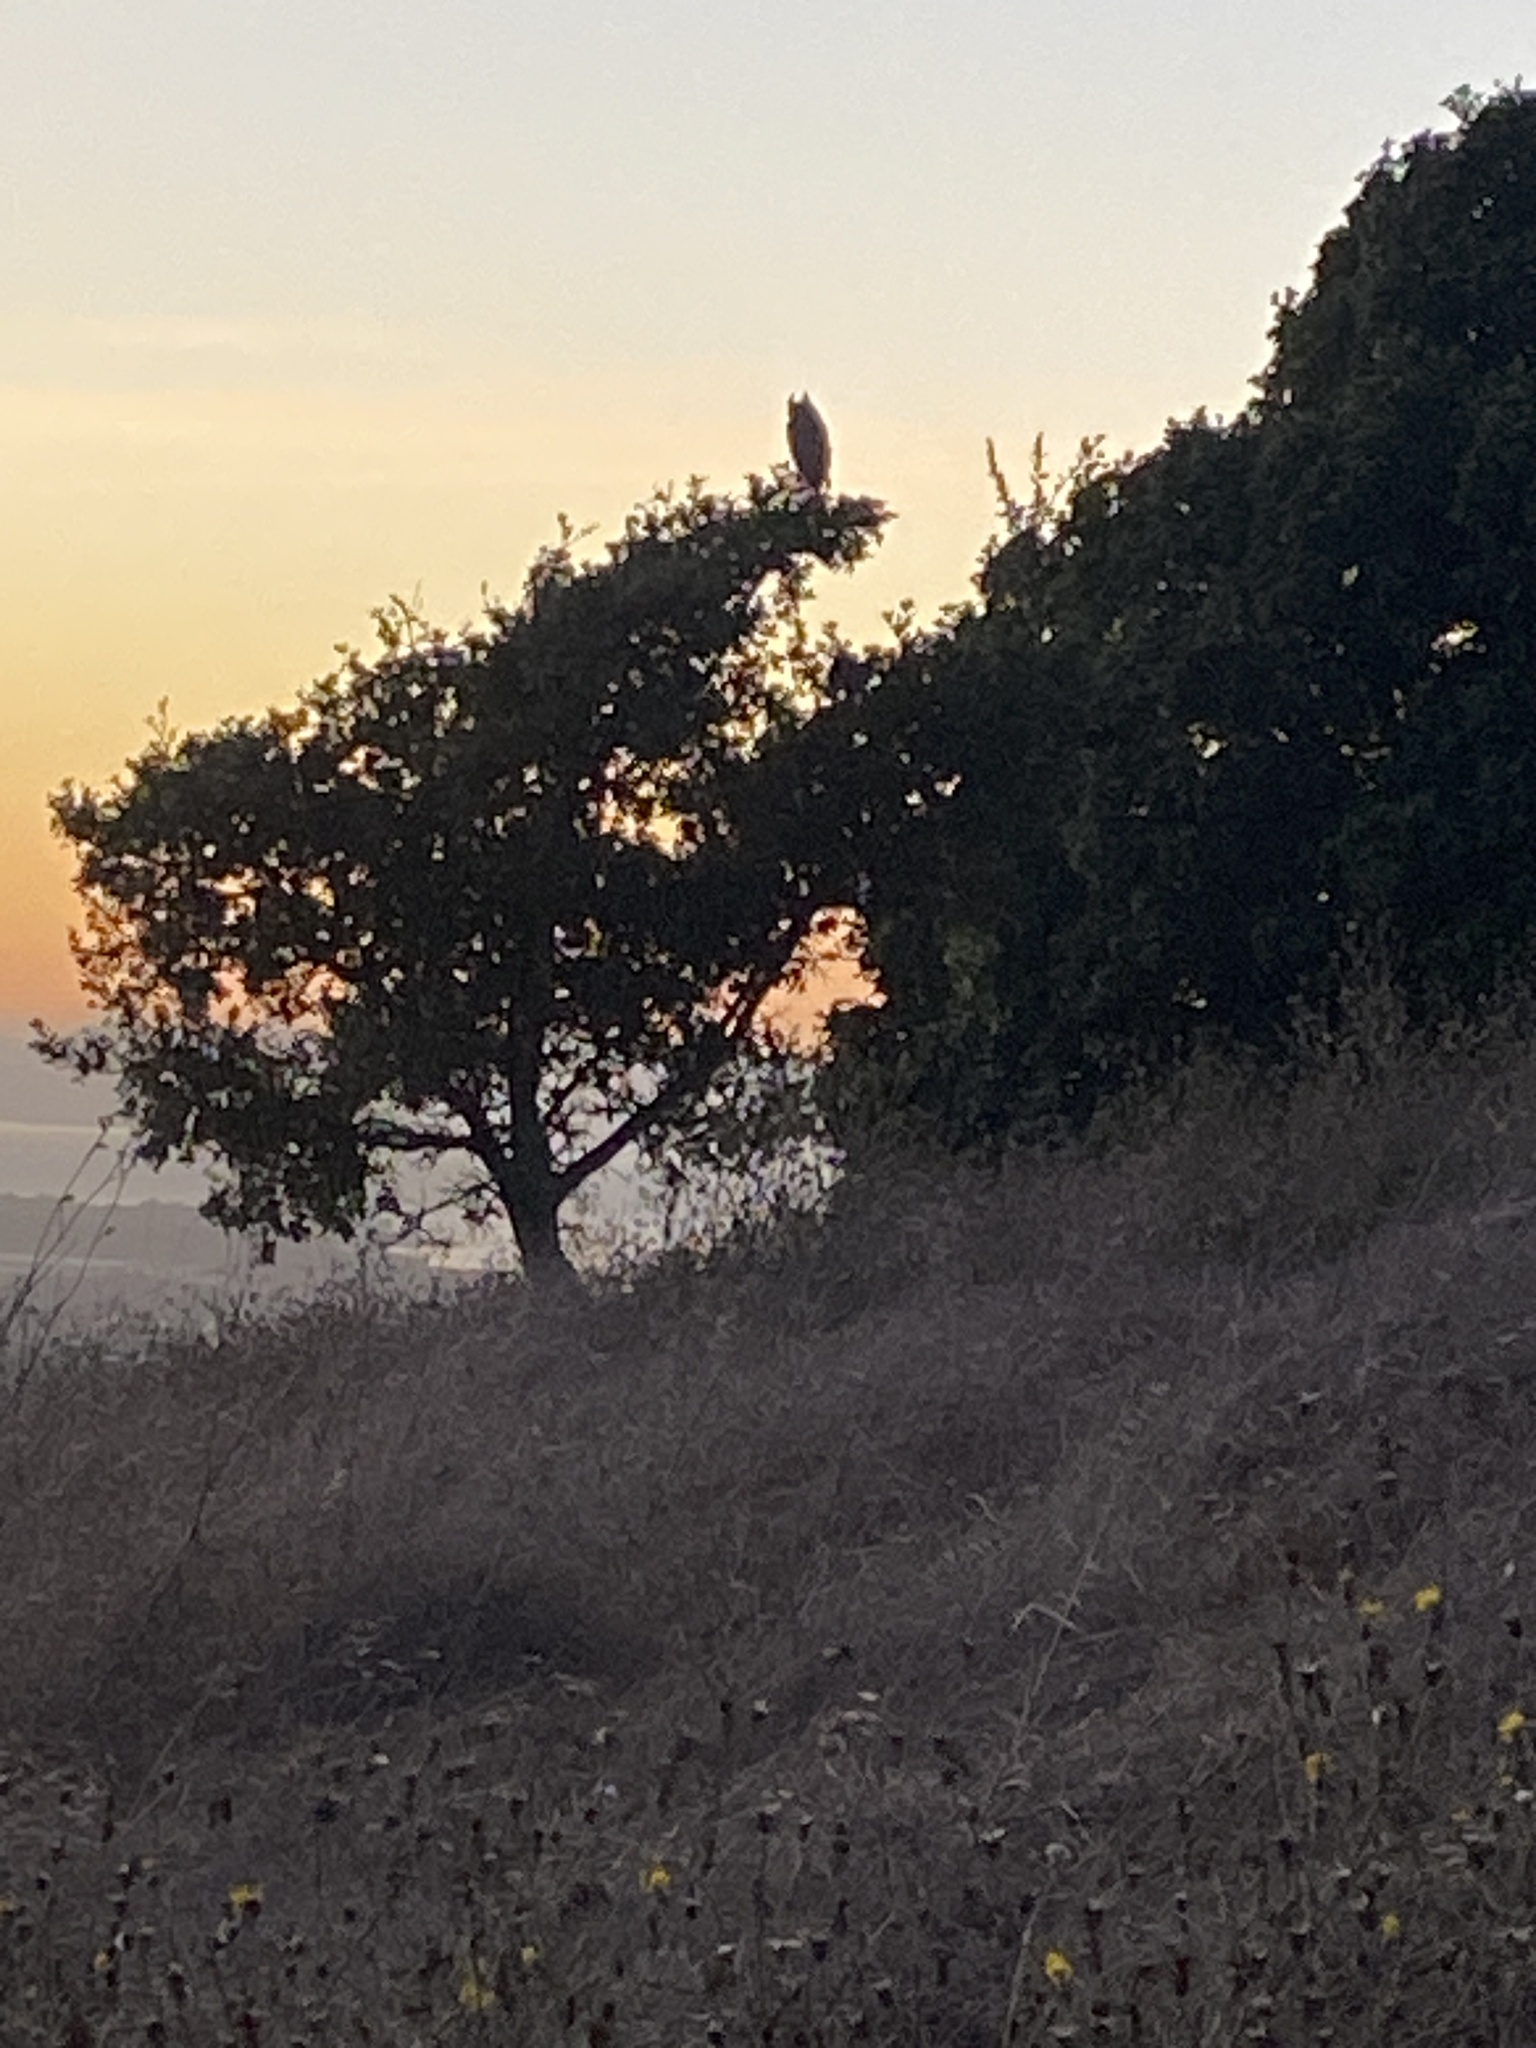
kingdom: Animalia
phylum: Chordata
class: Aves
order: Strigiformes
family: Strigidae
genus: Bubo
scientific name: Bubo virginianus
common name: Great horned owl
